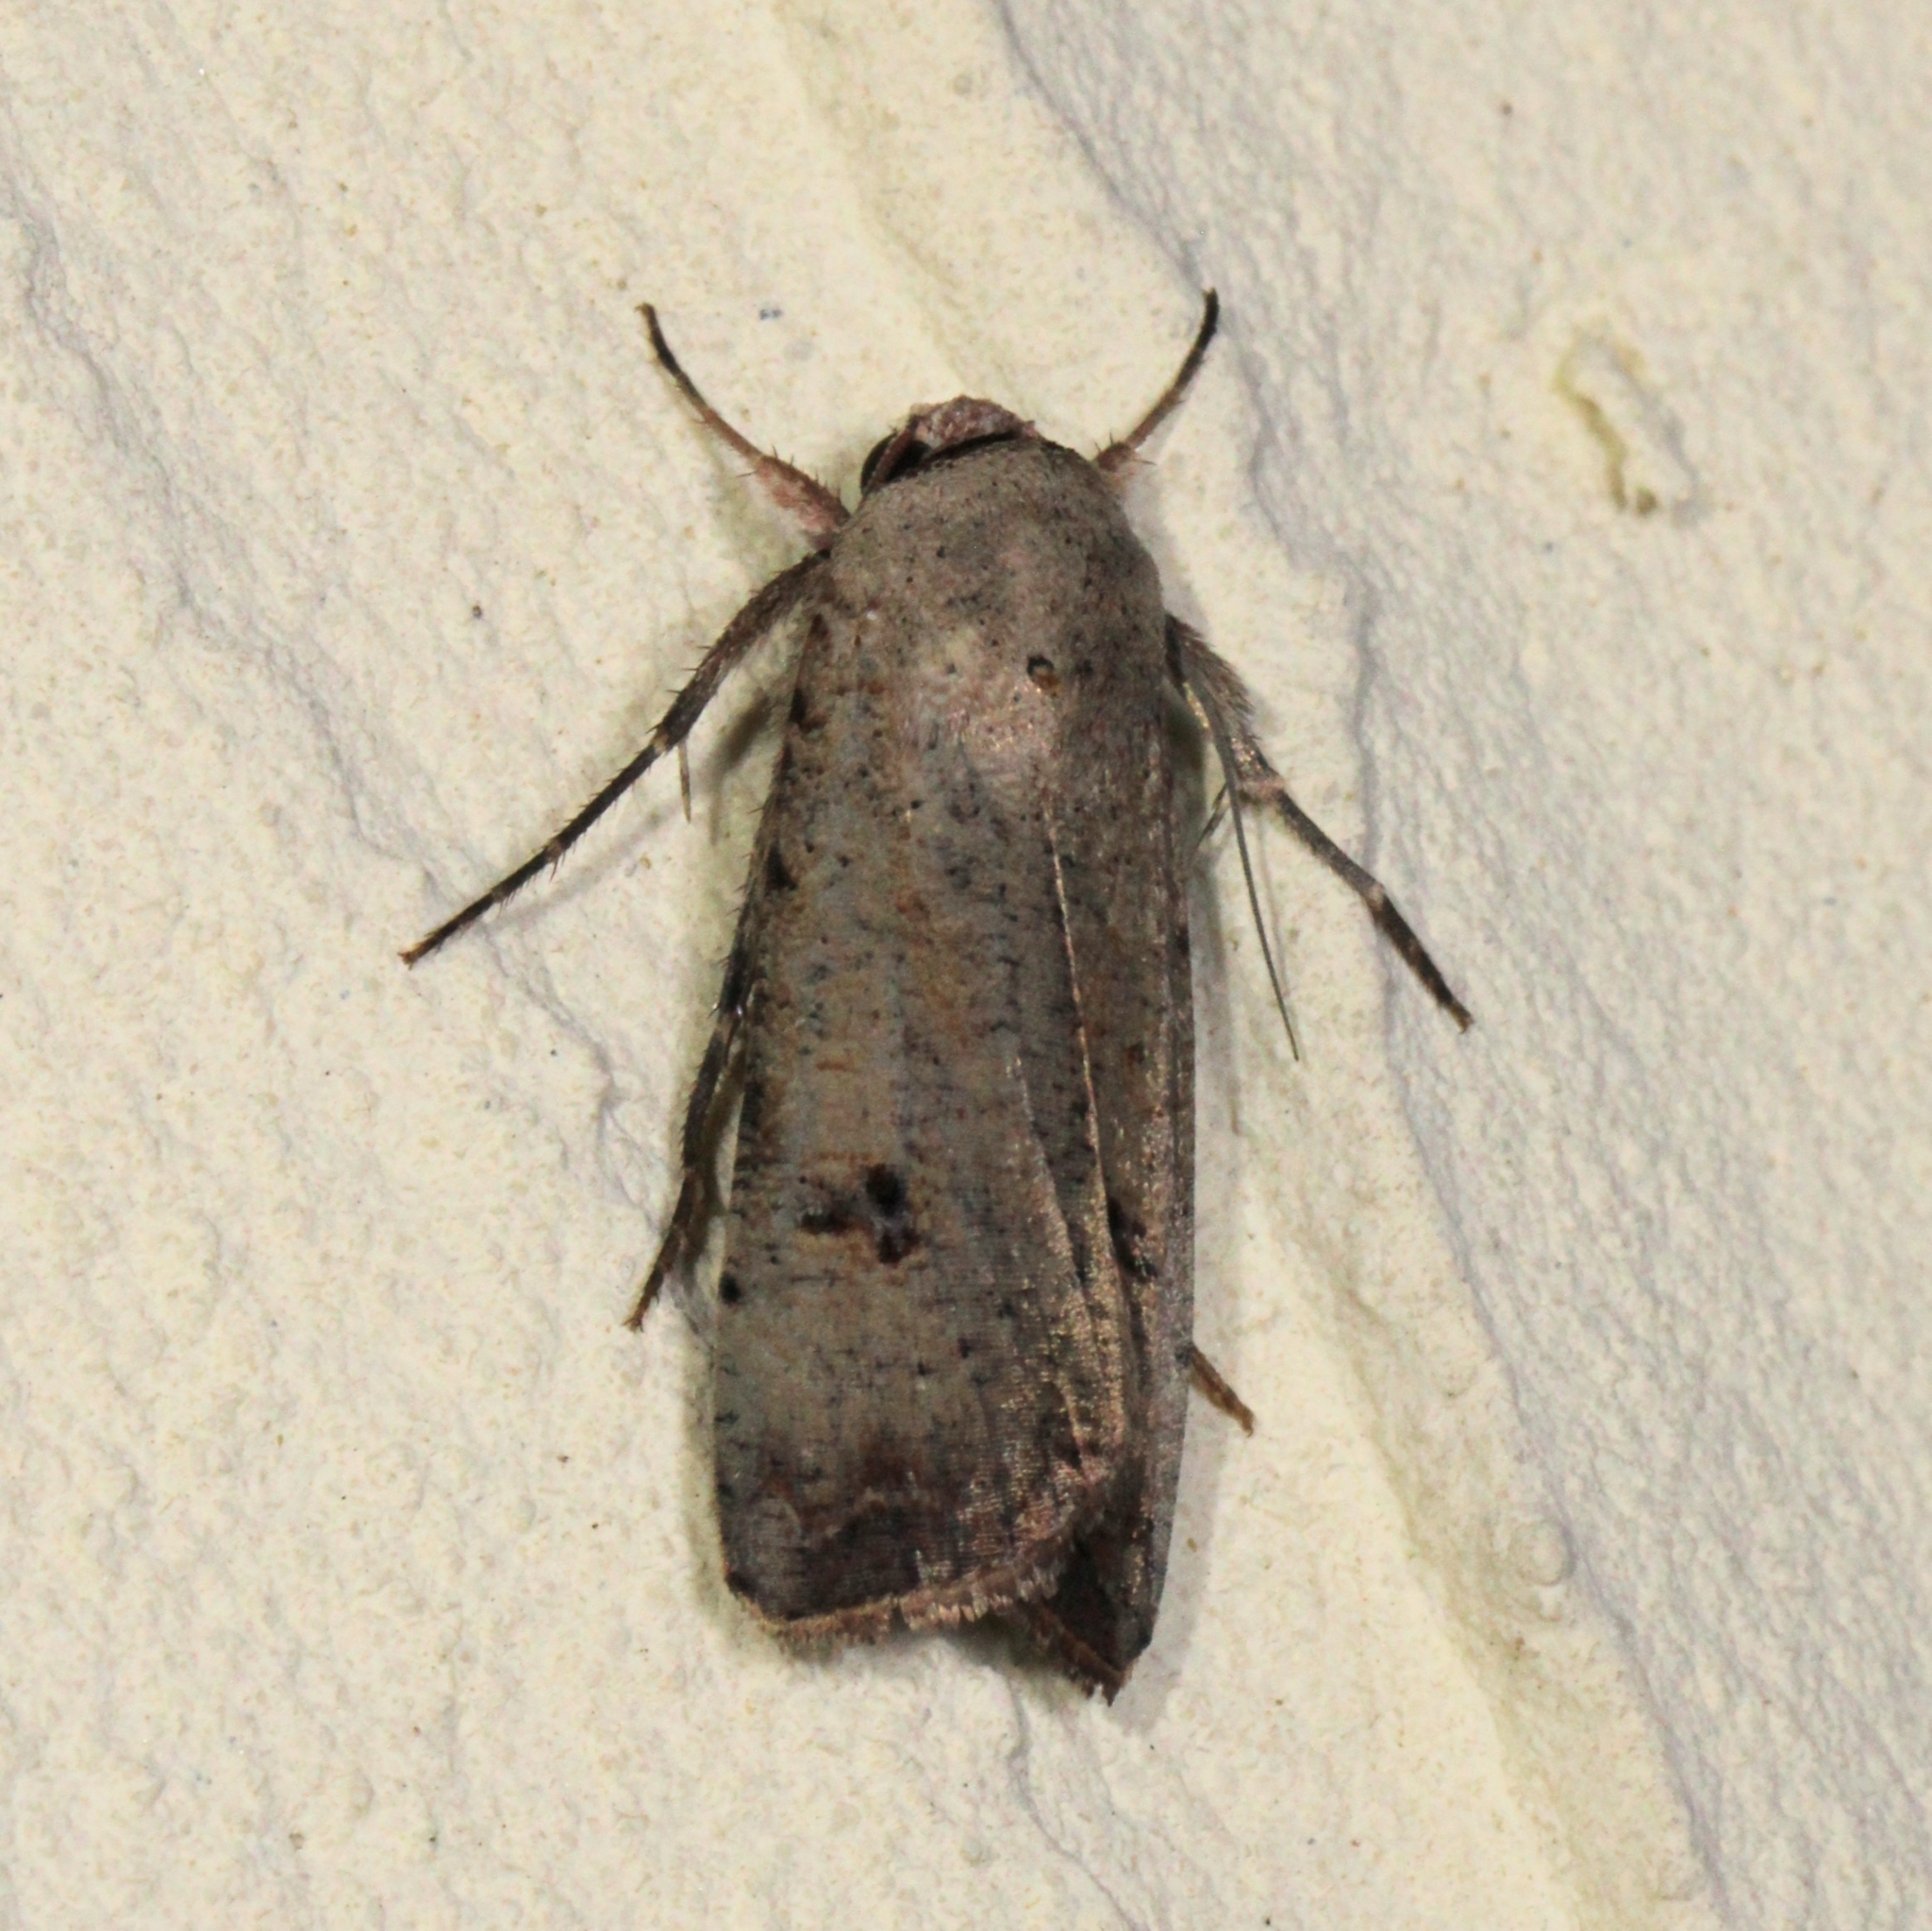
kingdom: Animalia
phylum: Arthropoda
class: Insecta
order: Lepidoptera
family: Noctuidae
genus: Anicla
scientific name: Anicla infecta
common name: Green cutworm
